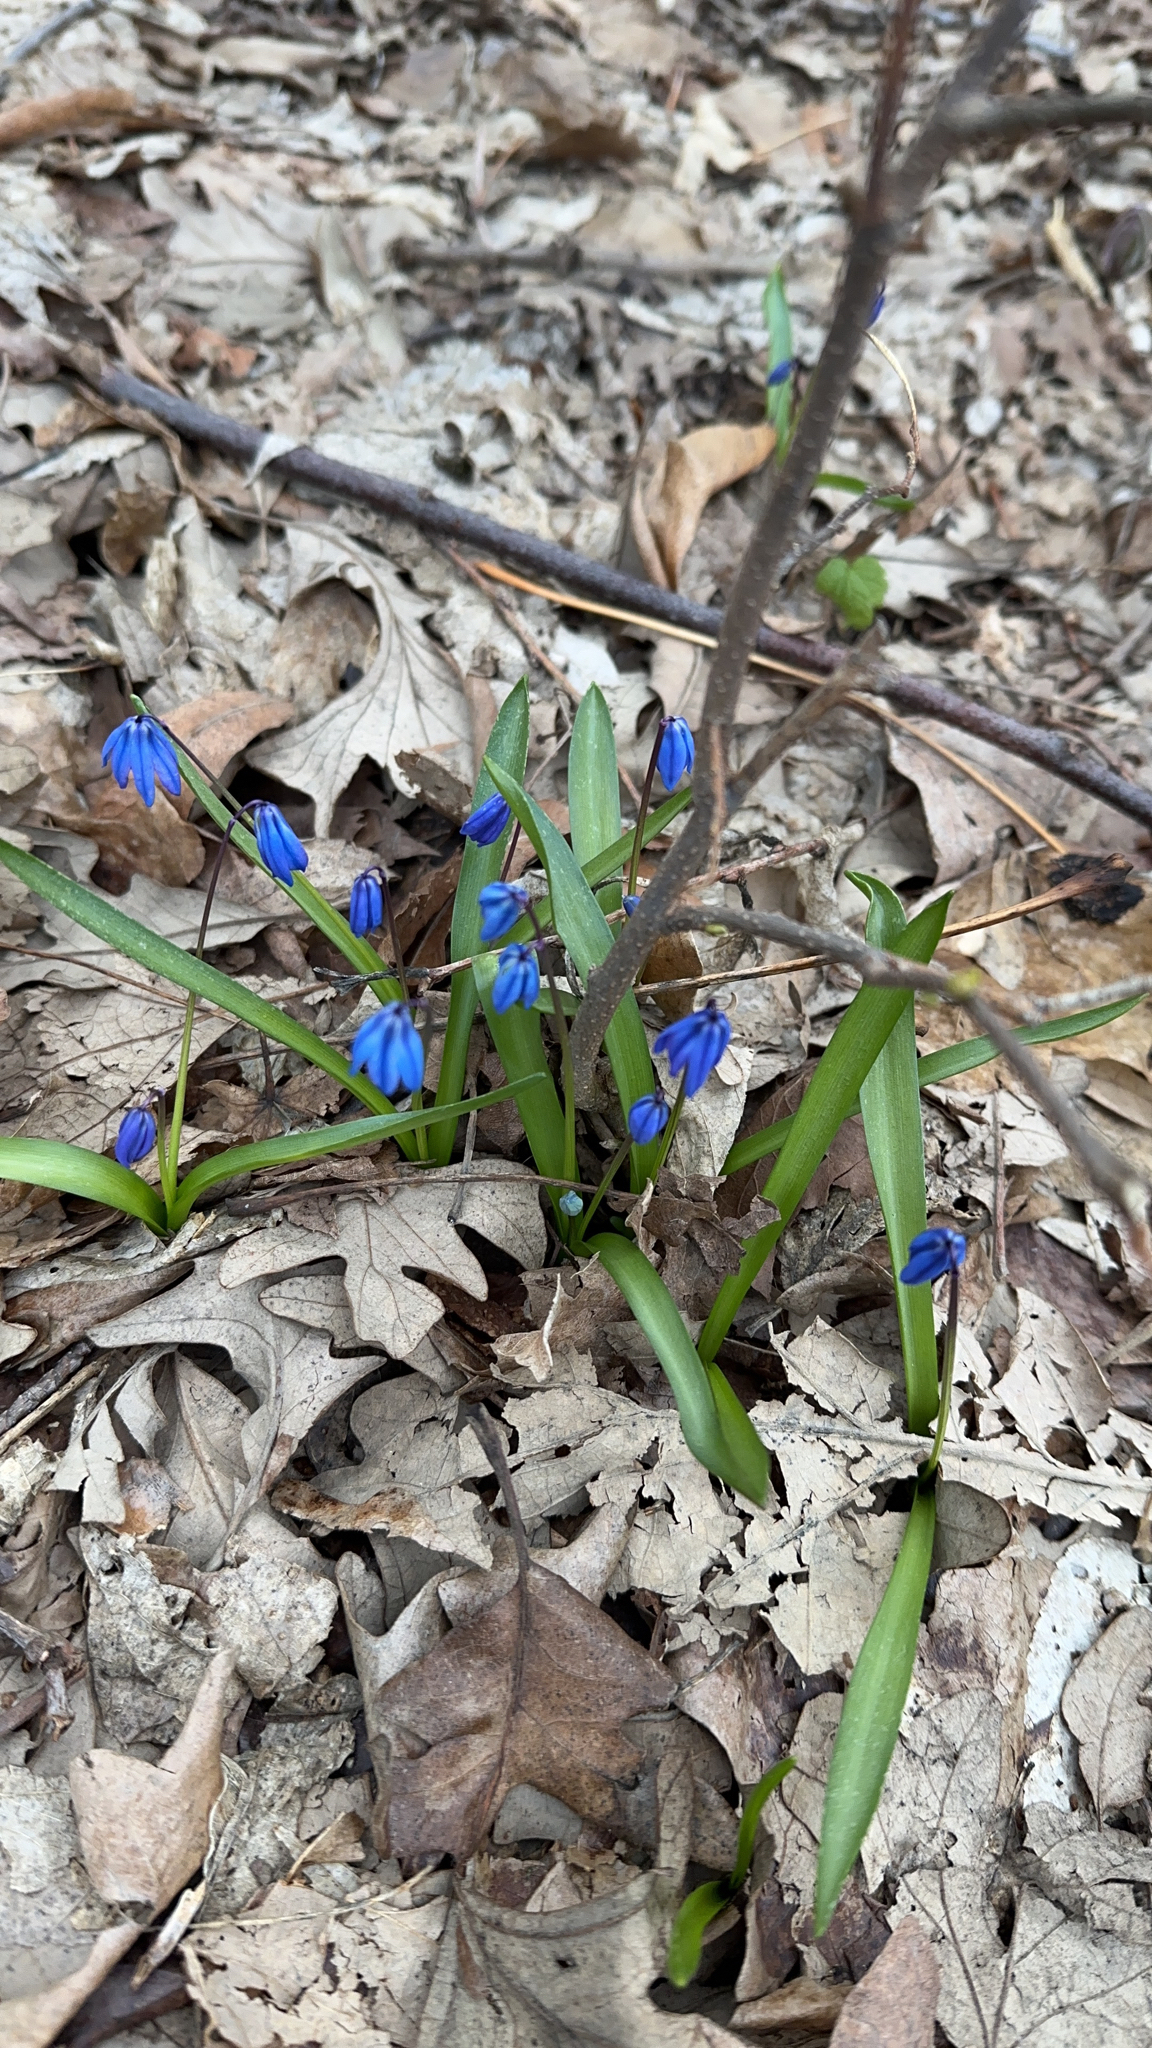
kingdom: Plantae
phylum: Tracheophyta
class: Liliopsida
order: Asparagales
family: Asparagaceae
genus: Scilla
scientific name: Scilla siberica
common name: Siberian squill
